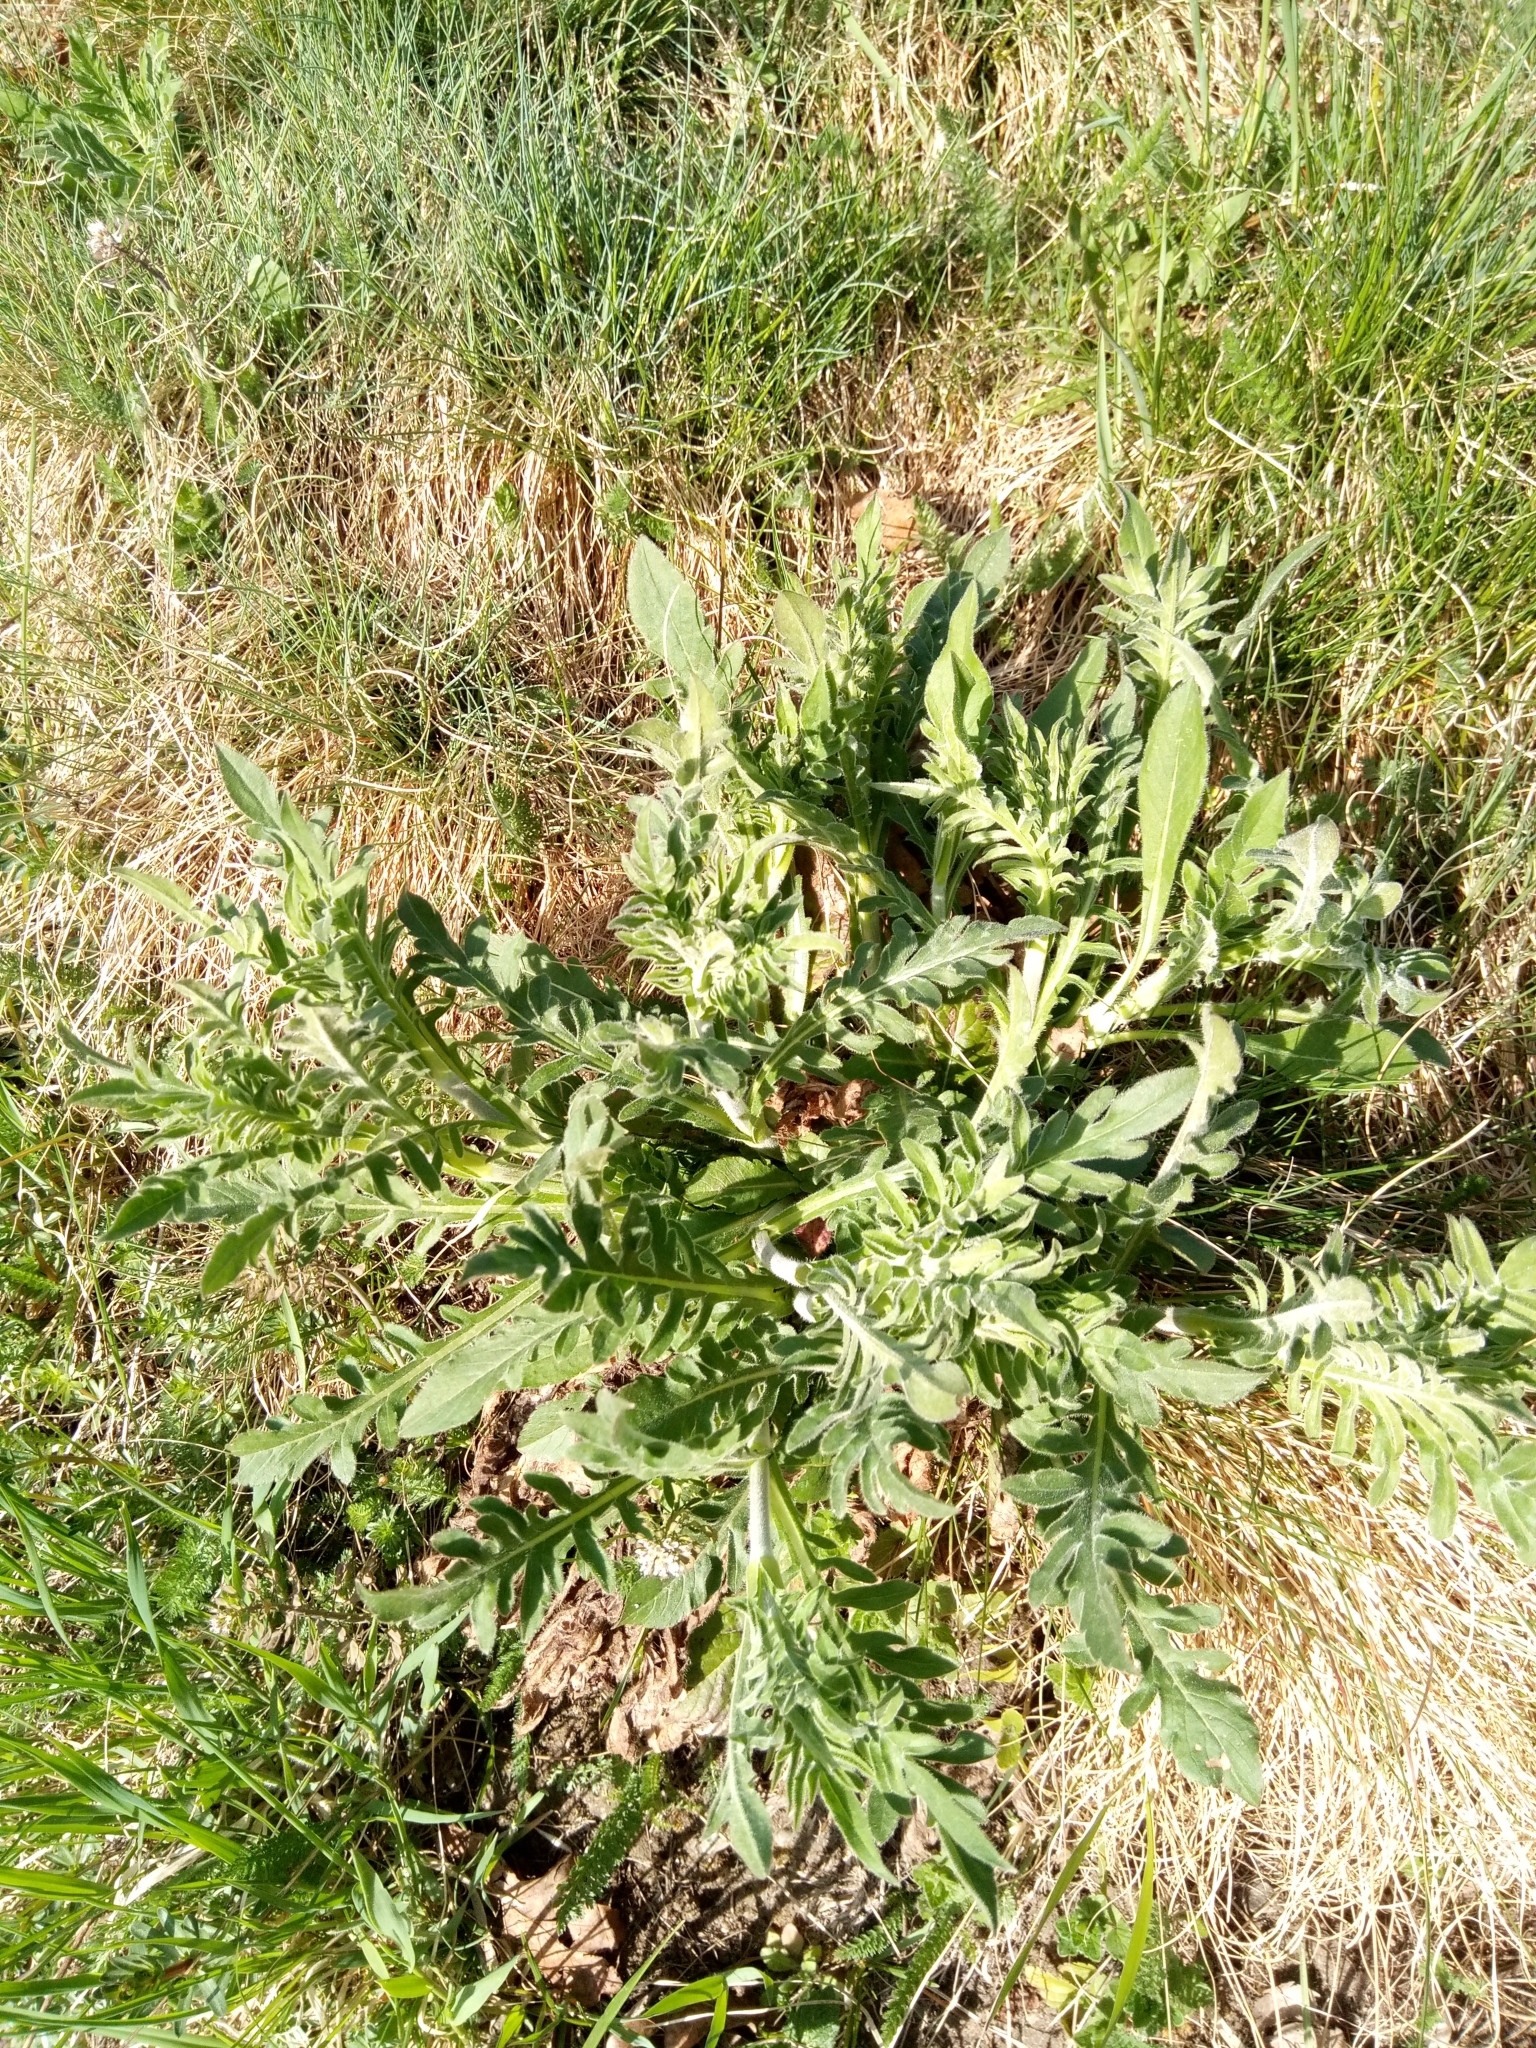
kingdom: Plantae
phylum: Tracheophyta
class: Magnoliopsida
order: Dipsacales
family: Caprifoliaceae
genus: Knautia
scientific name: Knautia arvensis
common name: Field scabiosa
